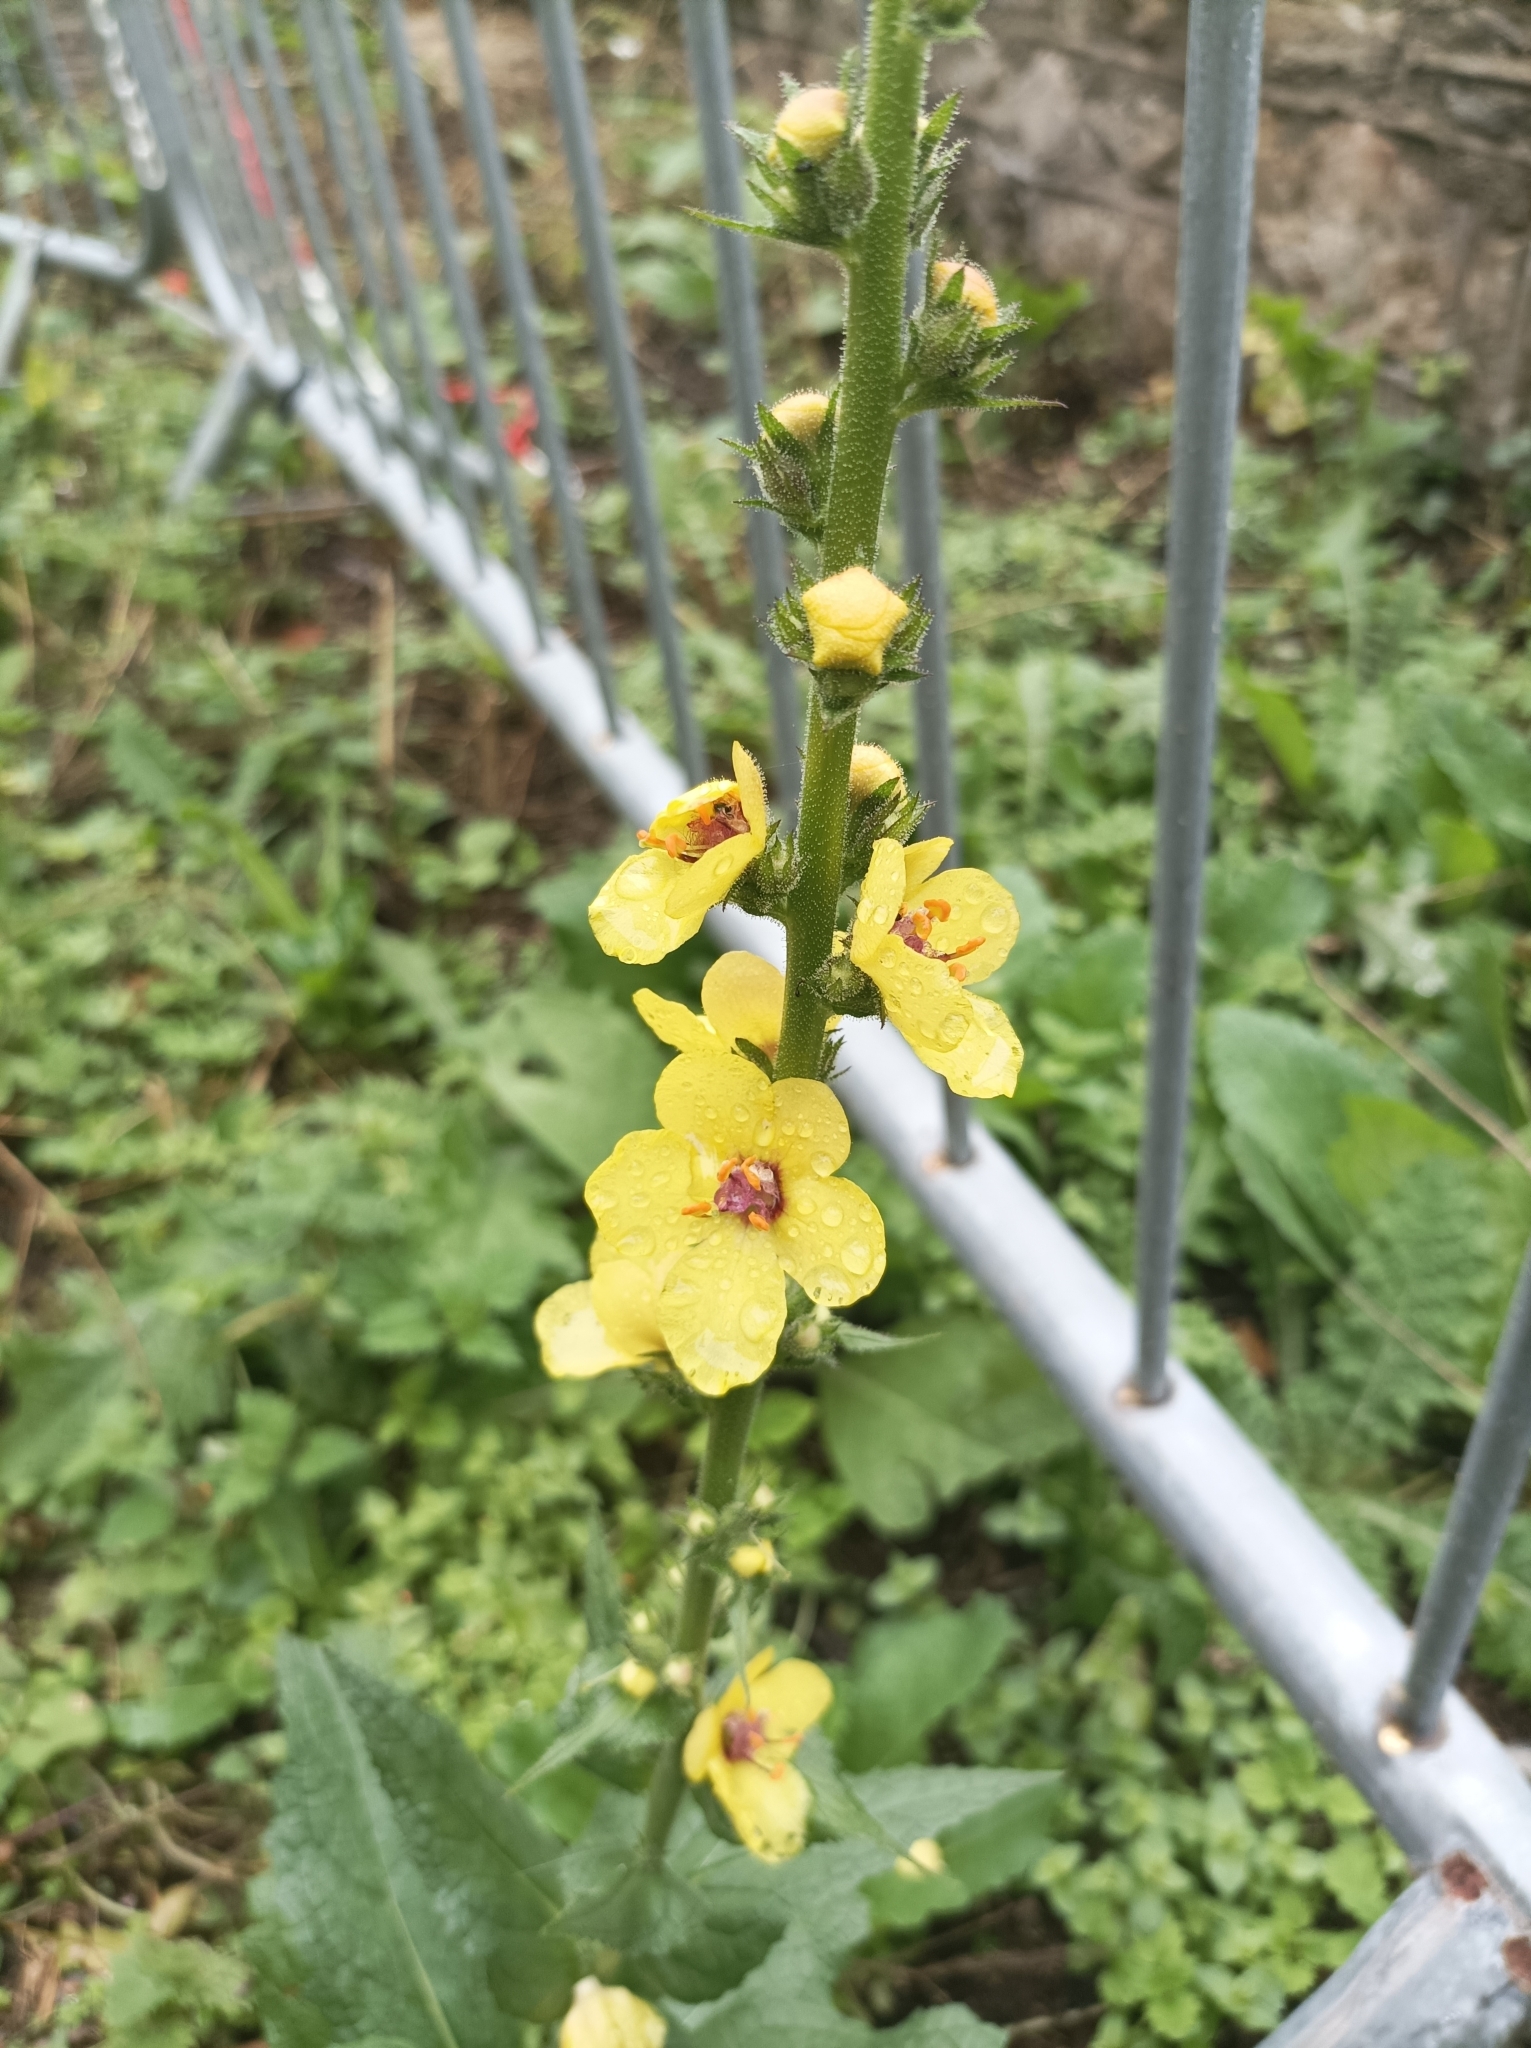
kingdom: Plantae
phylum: Tracheophyta
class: Magnoliopsida
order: Lamiales
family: Scrophulariaceae
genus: Verbascum
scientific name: Verbascum virgatum
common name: Twiggy mullein
